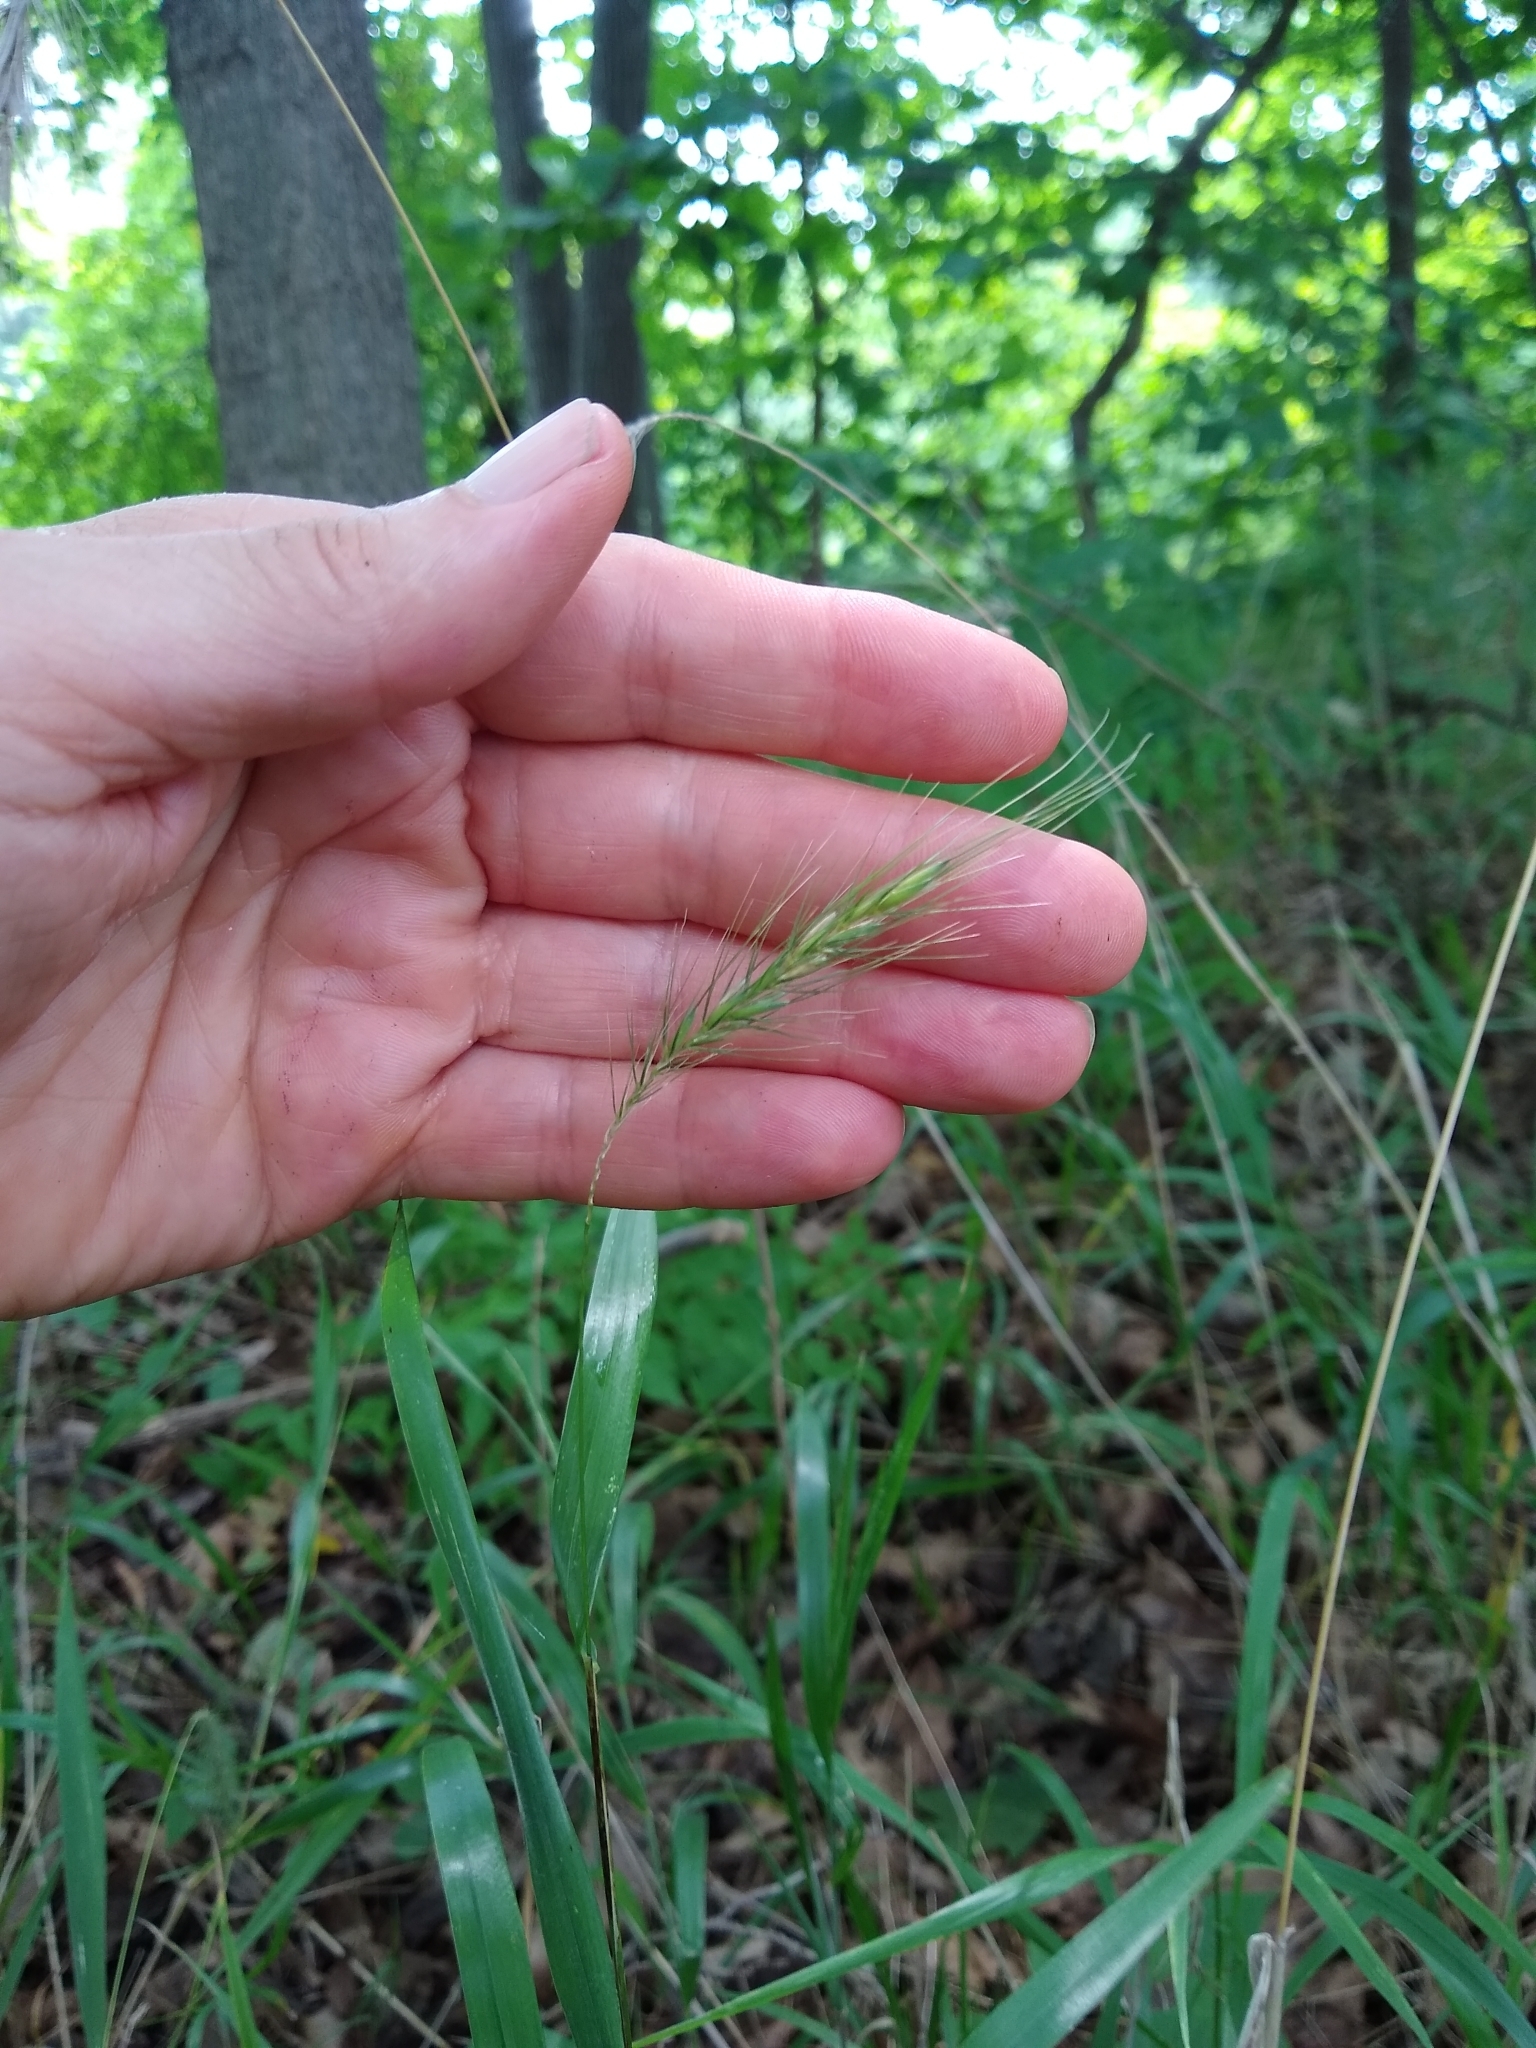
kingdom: Plantae
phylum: Tracheophyta
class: Liliopsida
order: Poales
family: Poaceae
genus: Elymus
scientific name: Elymus villosus
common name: Downy wild rye
